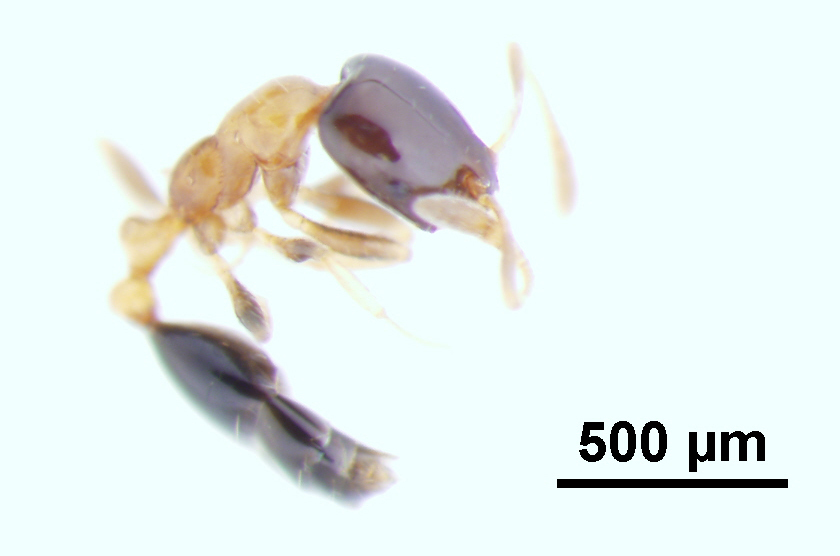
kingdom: Animalia
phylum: Arthropoda
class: Insecta
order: Hymenoptera
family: Formicidae
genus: Monomorium
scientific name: Monomorium floricola
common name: Bicolored trailing ant
